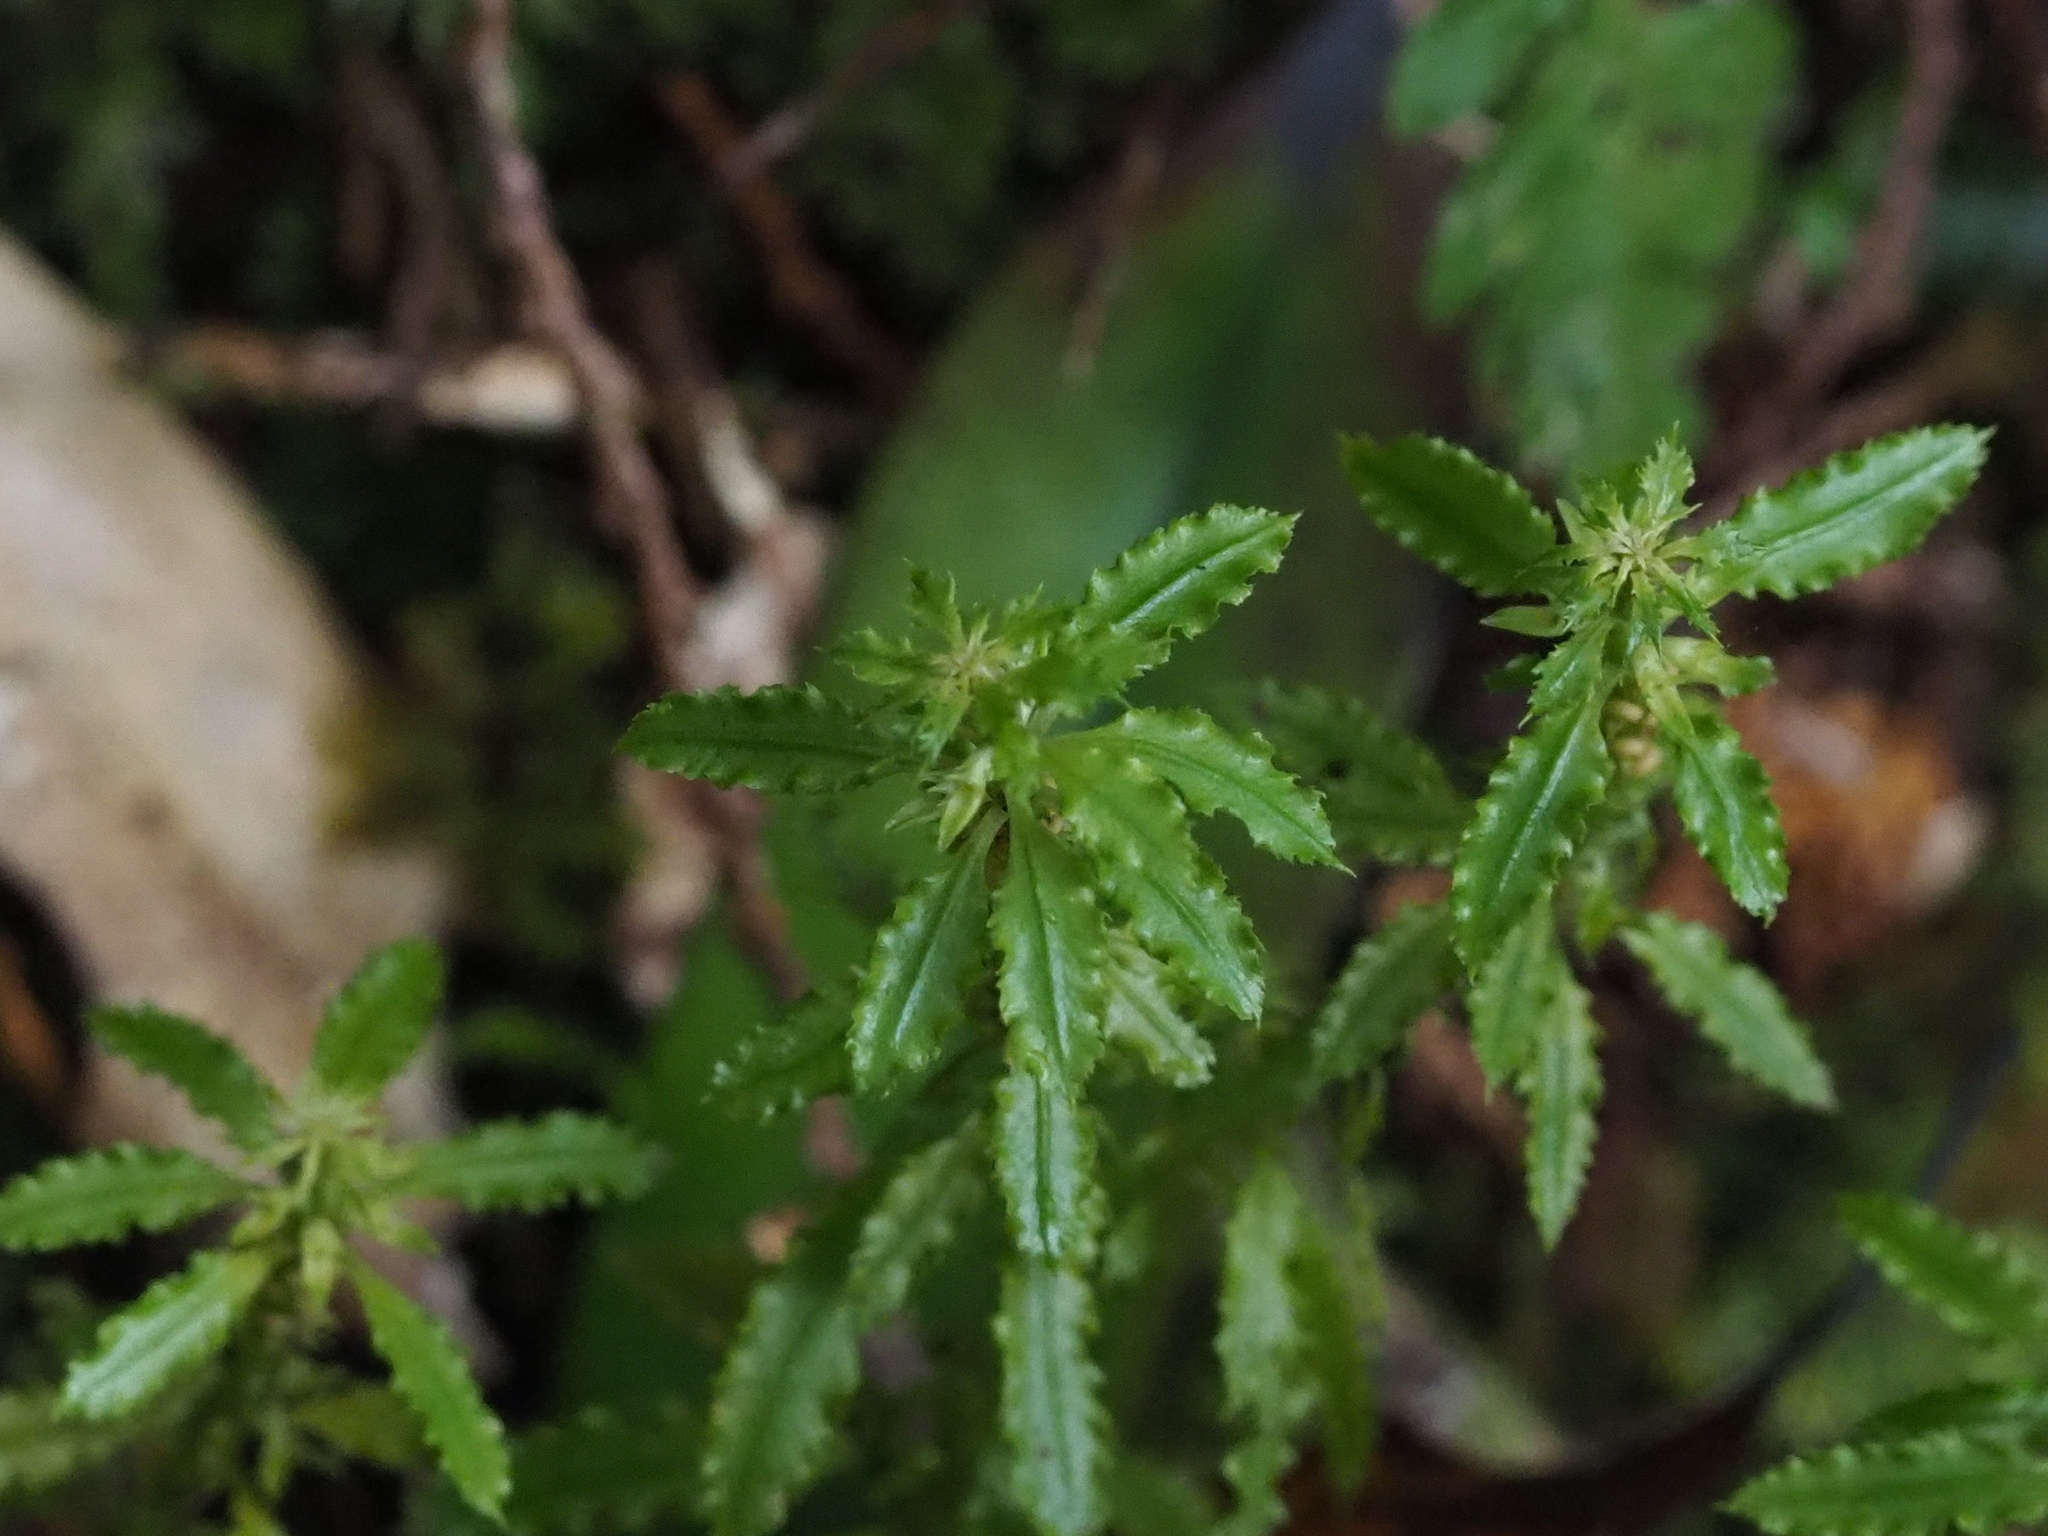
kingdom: Plantae
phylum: Tracheophyta
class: Lycopodiopsida
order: Lycopodiales
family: Lycopodiaceae
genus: Huperzia
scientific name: Huperzia javanica
